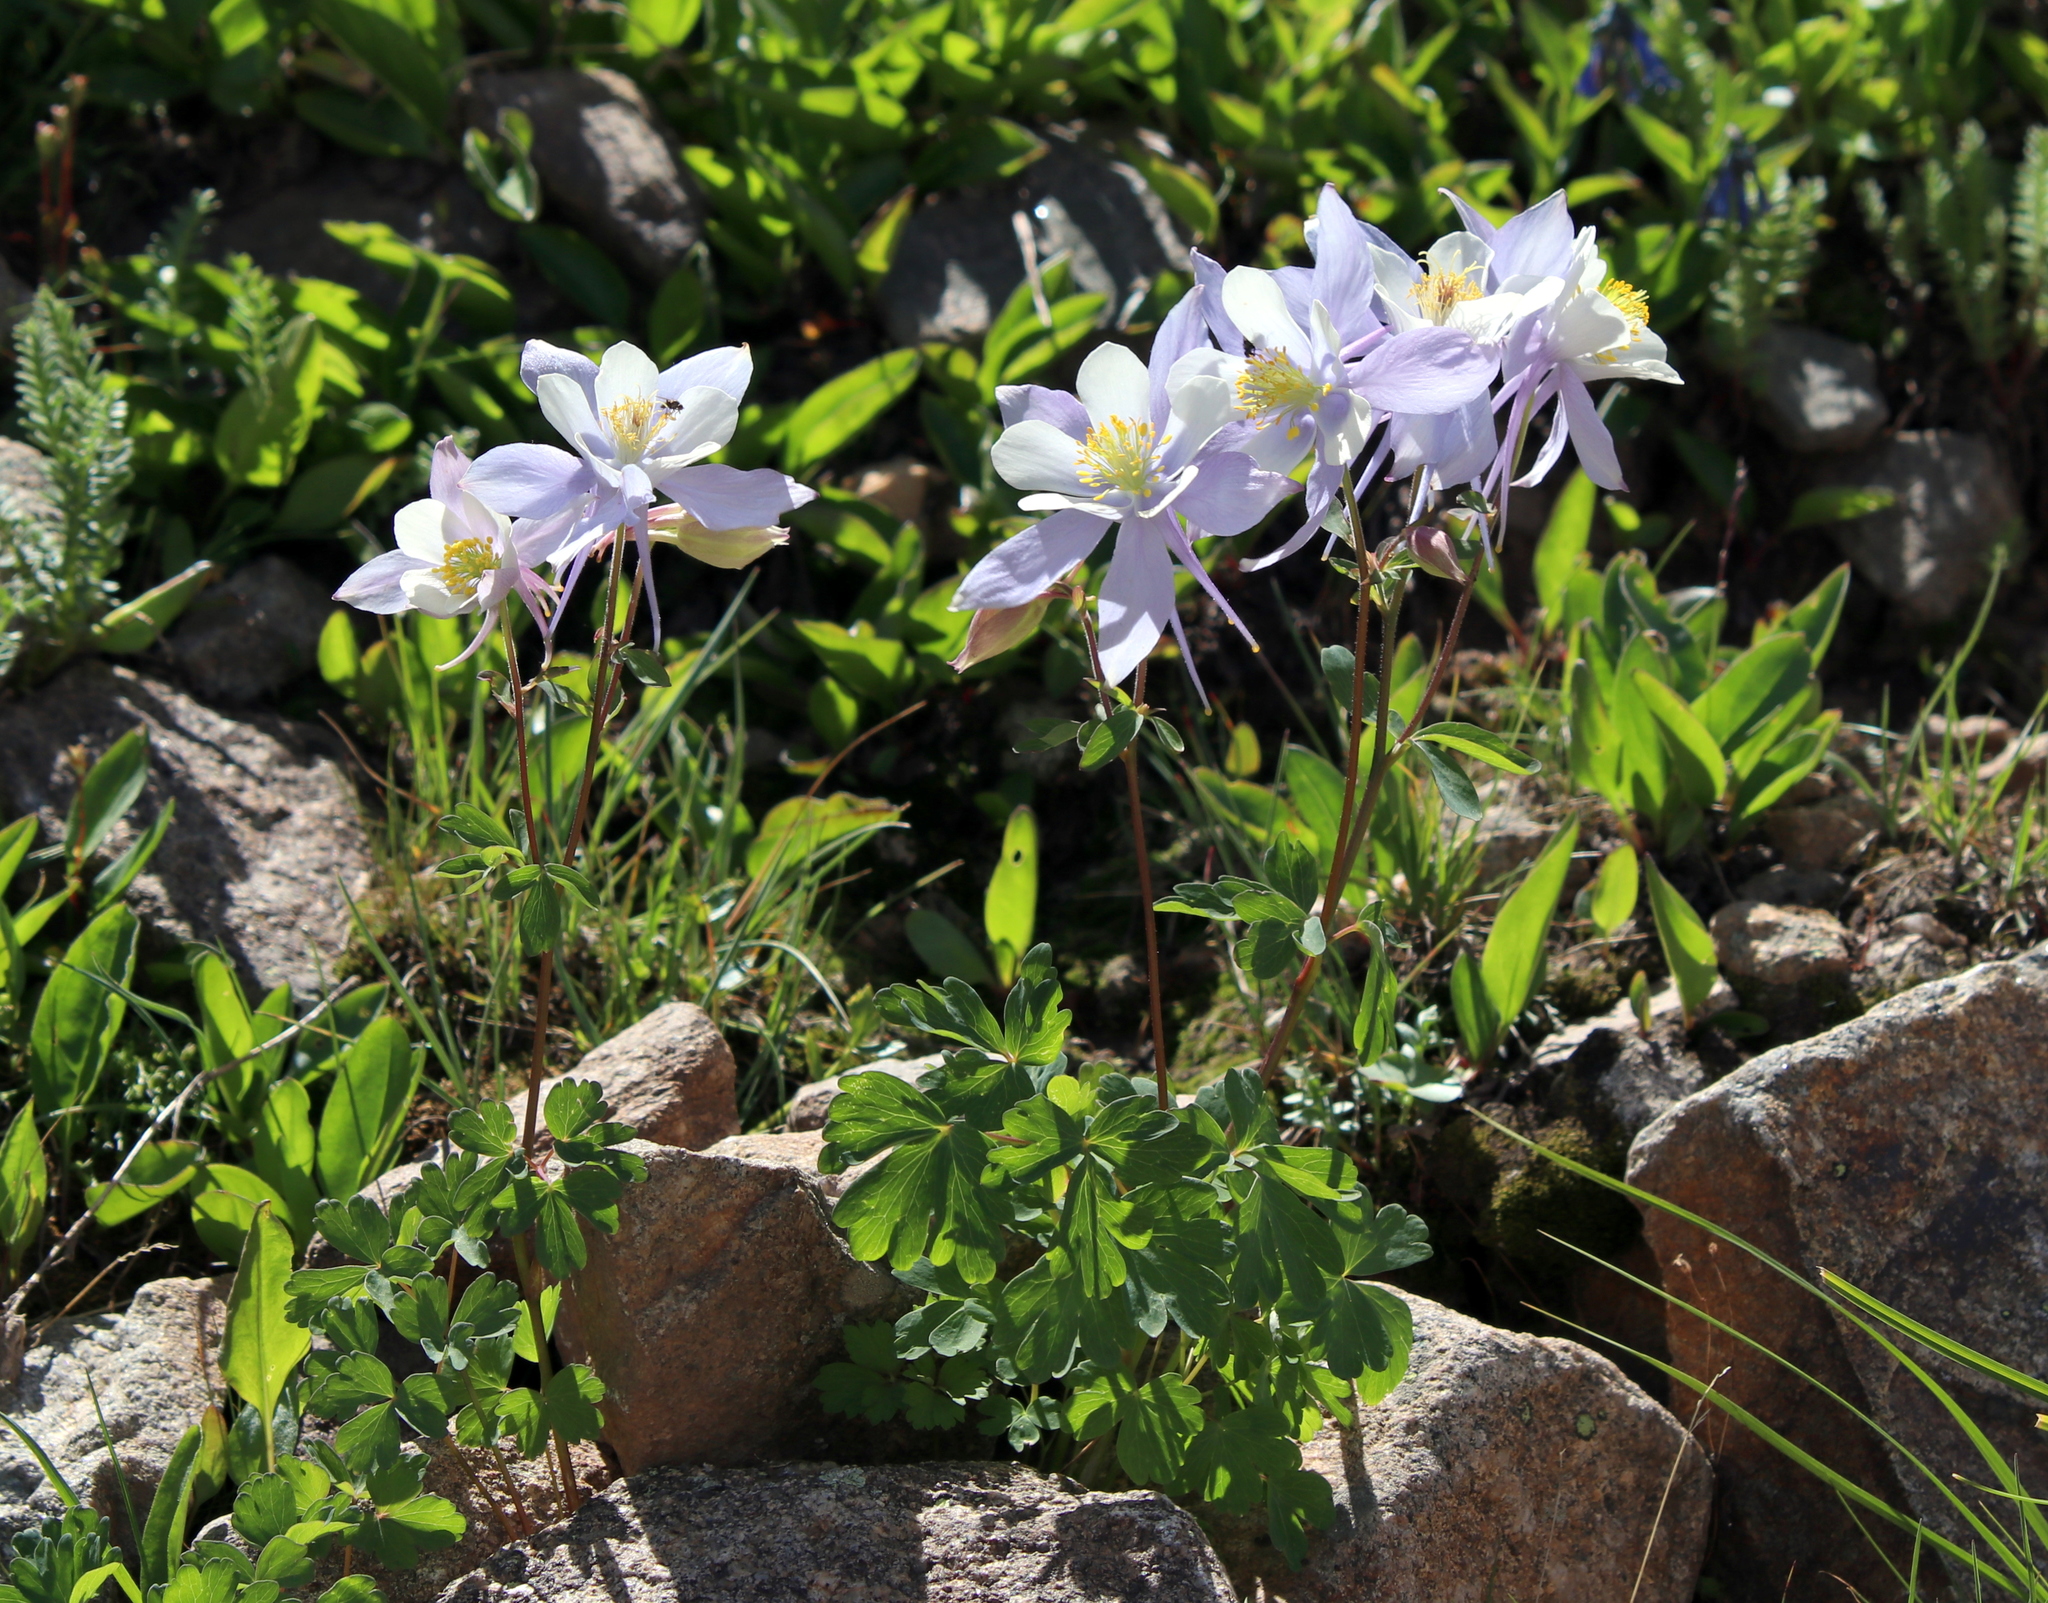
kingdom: Plantae
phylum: Tracheophyta
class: Magnoliopsida
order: Ranunculales
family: Ranunculaceae
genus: Aquilegia
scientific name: Aquilegia coerulea
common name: Rocky mountain columbine
